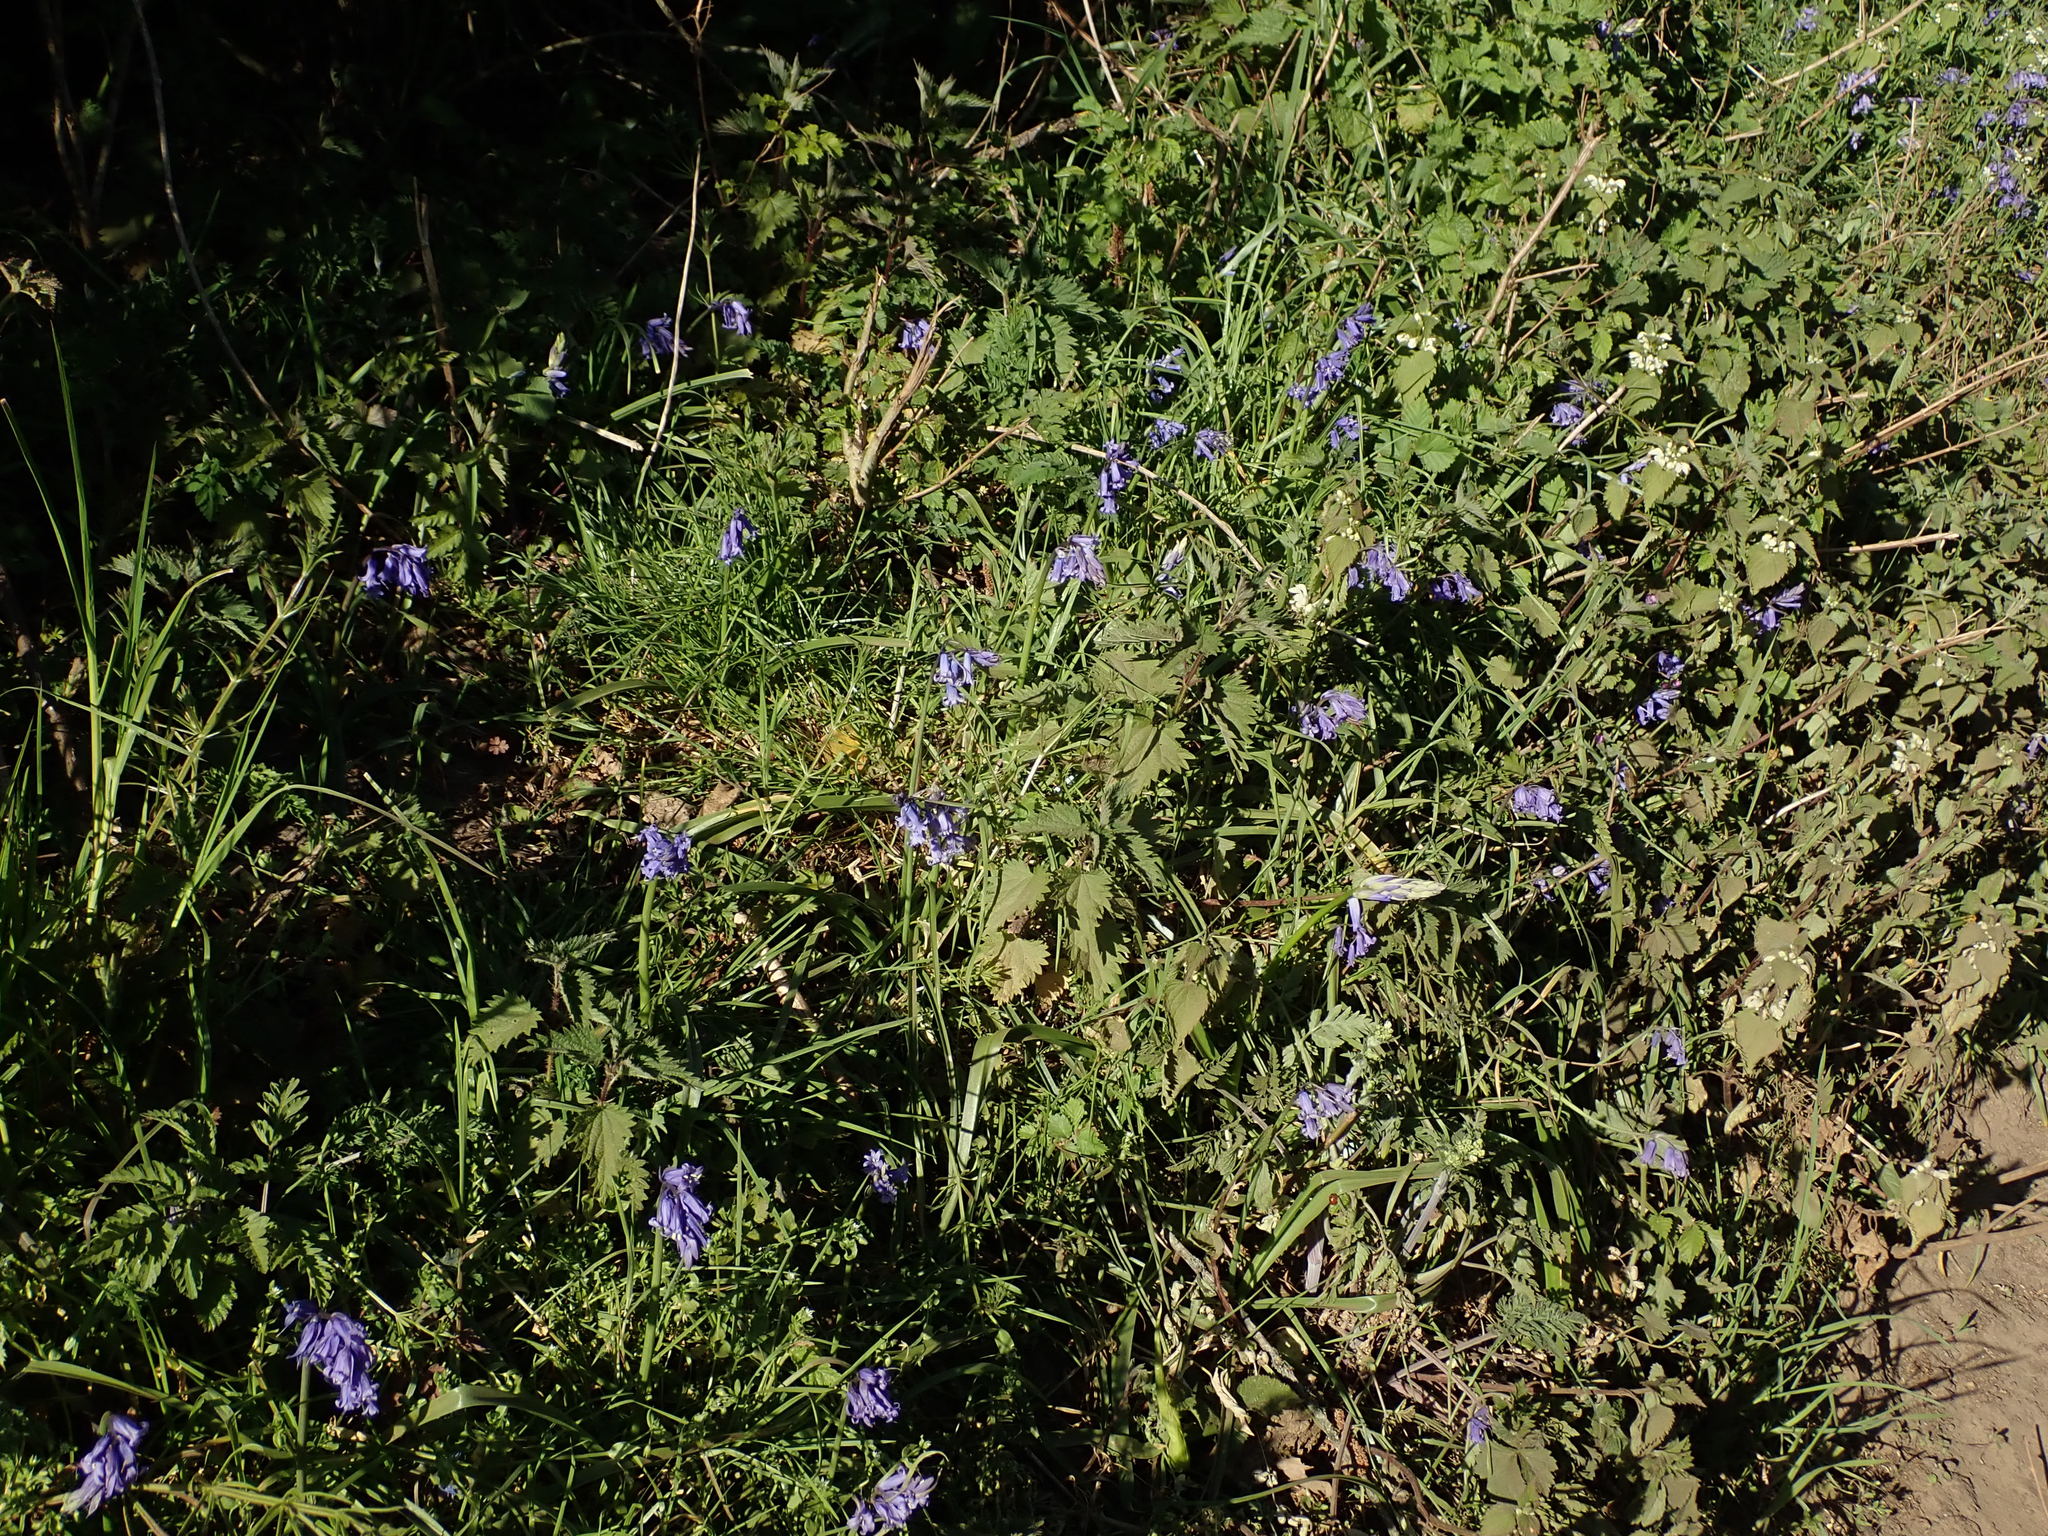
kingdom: Plantae
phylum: Tracheophyta
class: Liliopsida
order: Asparagales
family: Asparagaceae
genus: Hyacinthoides
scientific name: Hyacinthoides massartiana
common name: Hyacinthoides
